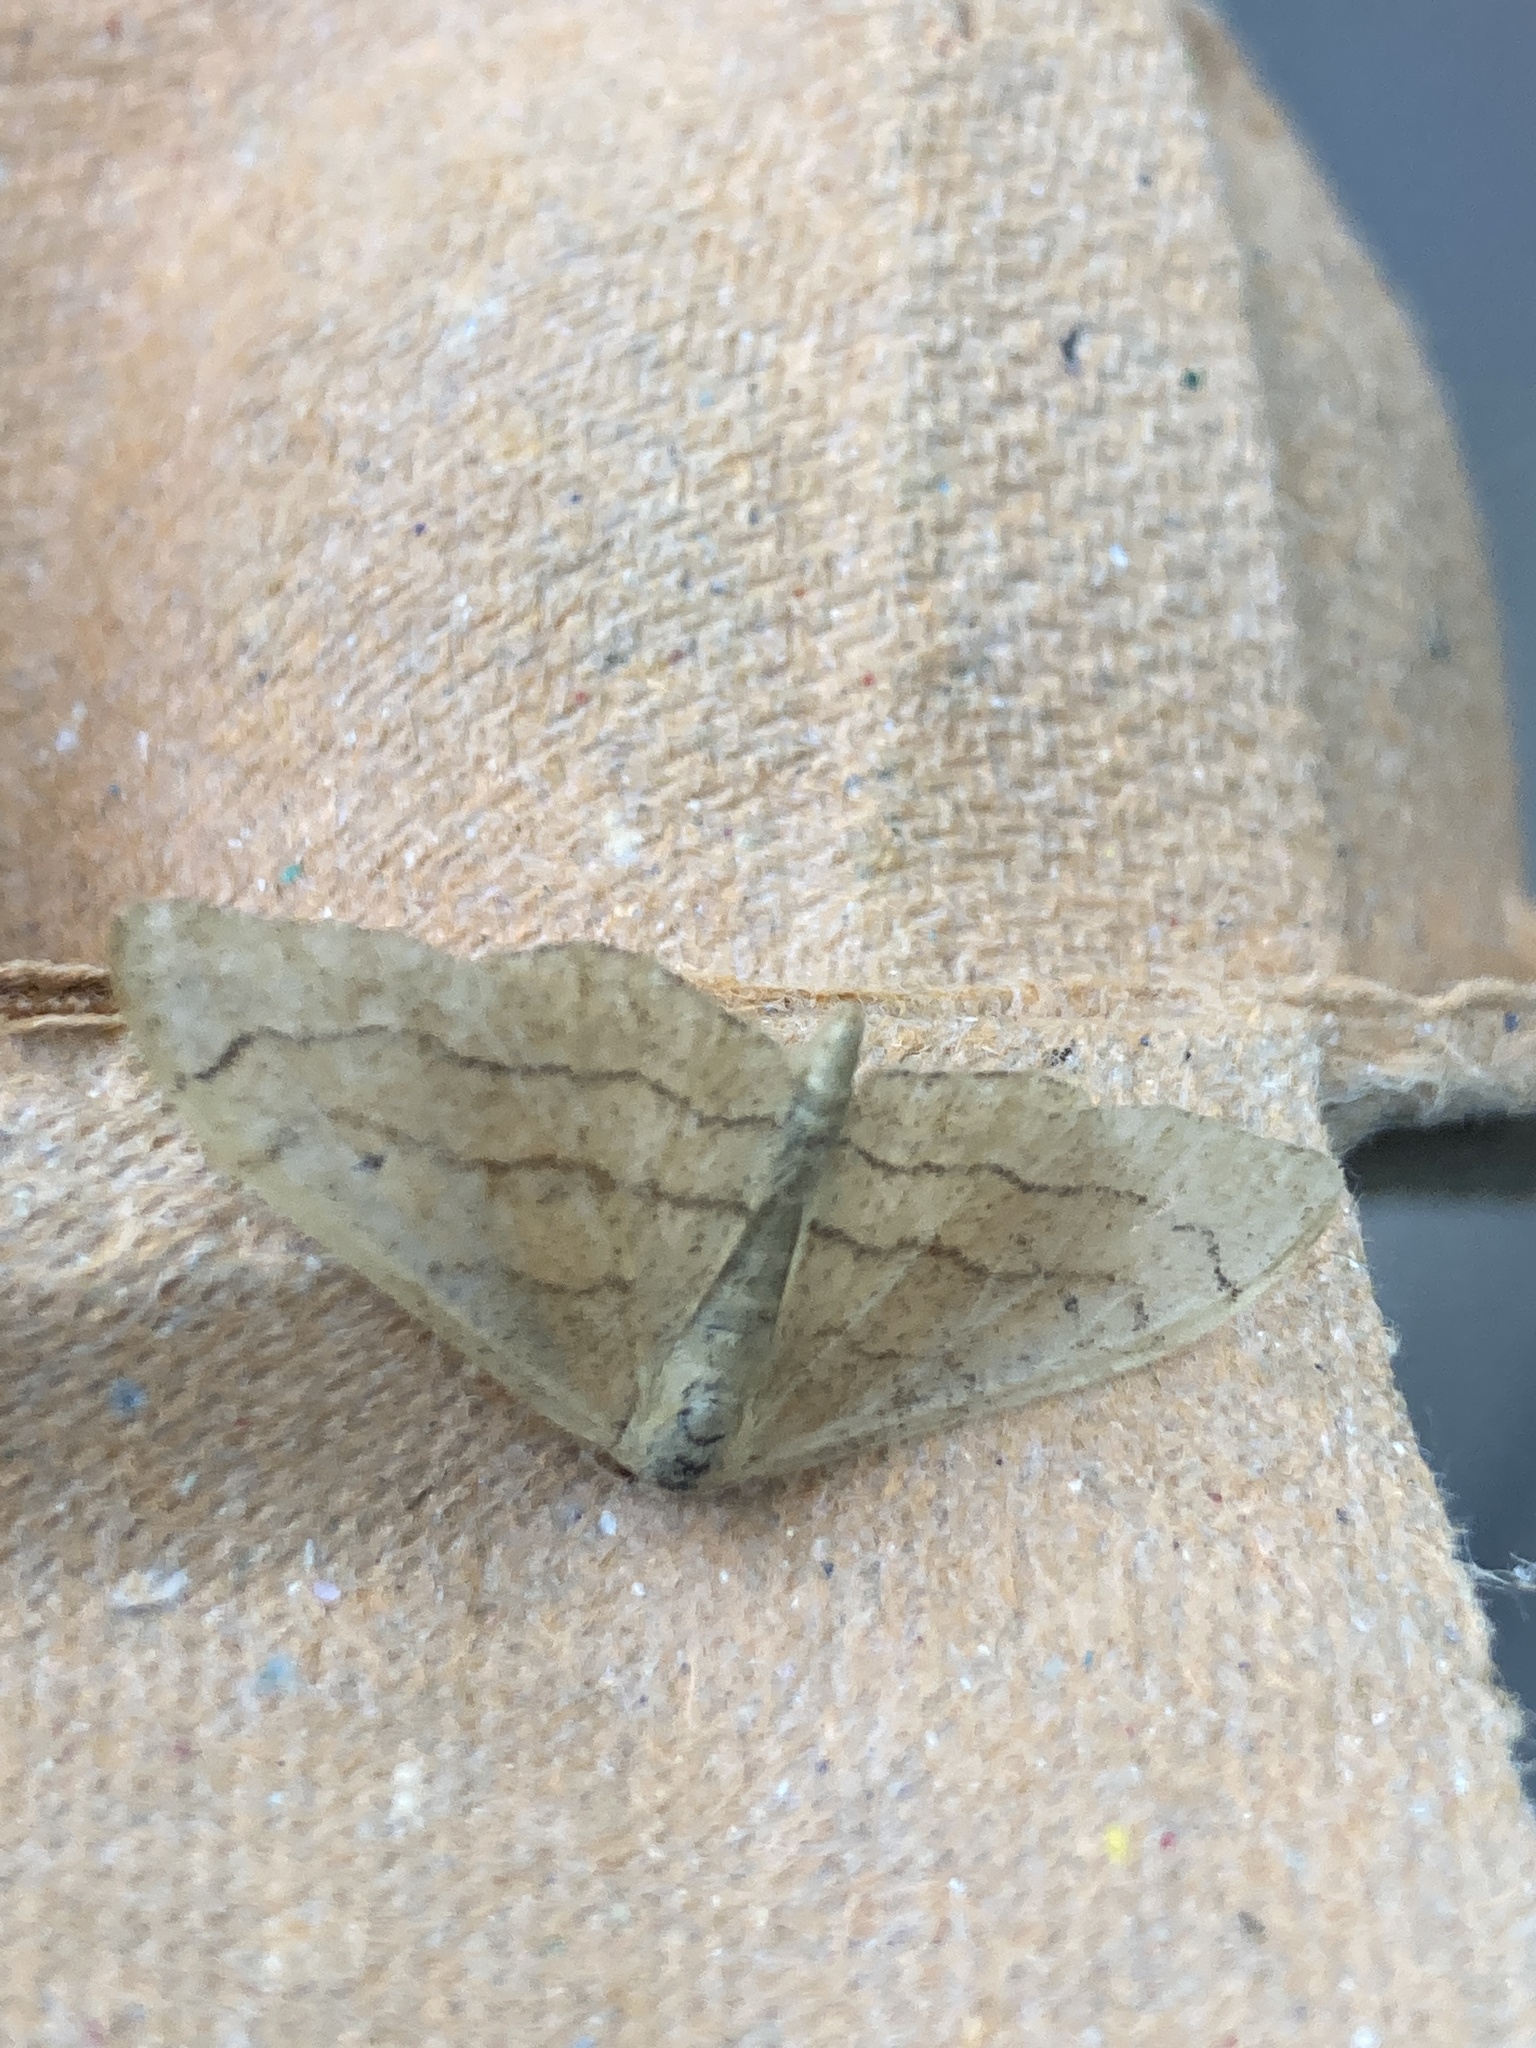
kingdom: Animalia
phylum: Arthropoda
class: Insecta
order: Lepidoptera
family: Geometridae
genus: Idaea
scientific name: Idaea aversata
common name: Riband wave
